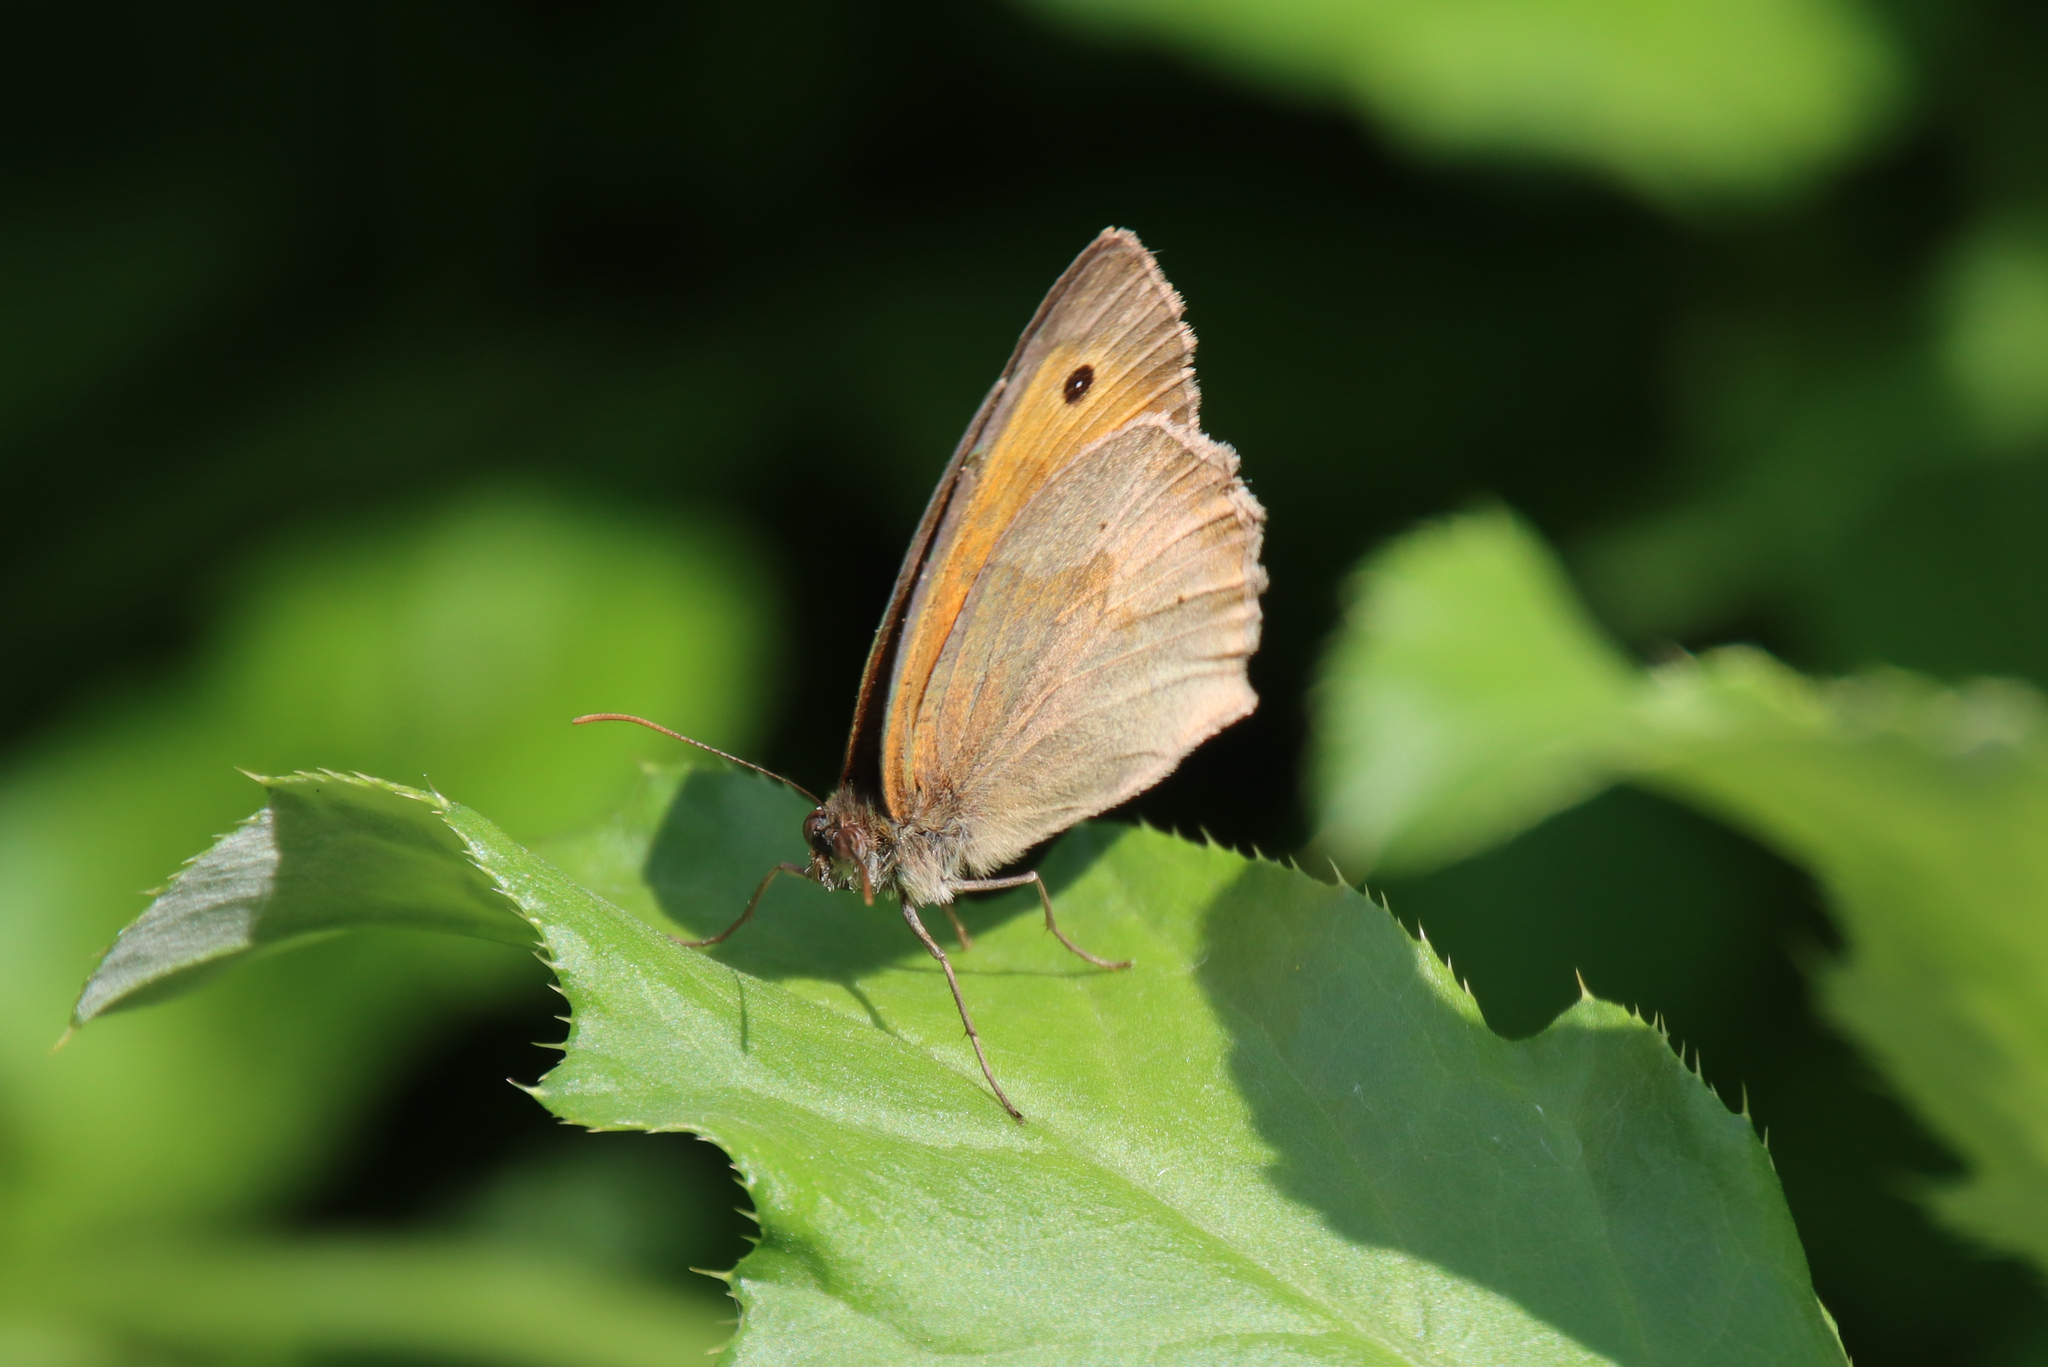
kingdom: Animalia
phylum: Arthropoda
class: Insecta
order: Lepidoptera
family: Nymphalidae
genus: Maniola
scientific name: Maniola jurtina
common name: Meadow brown
